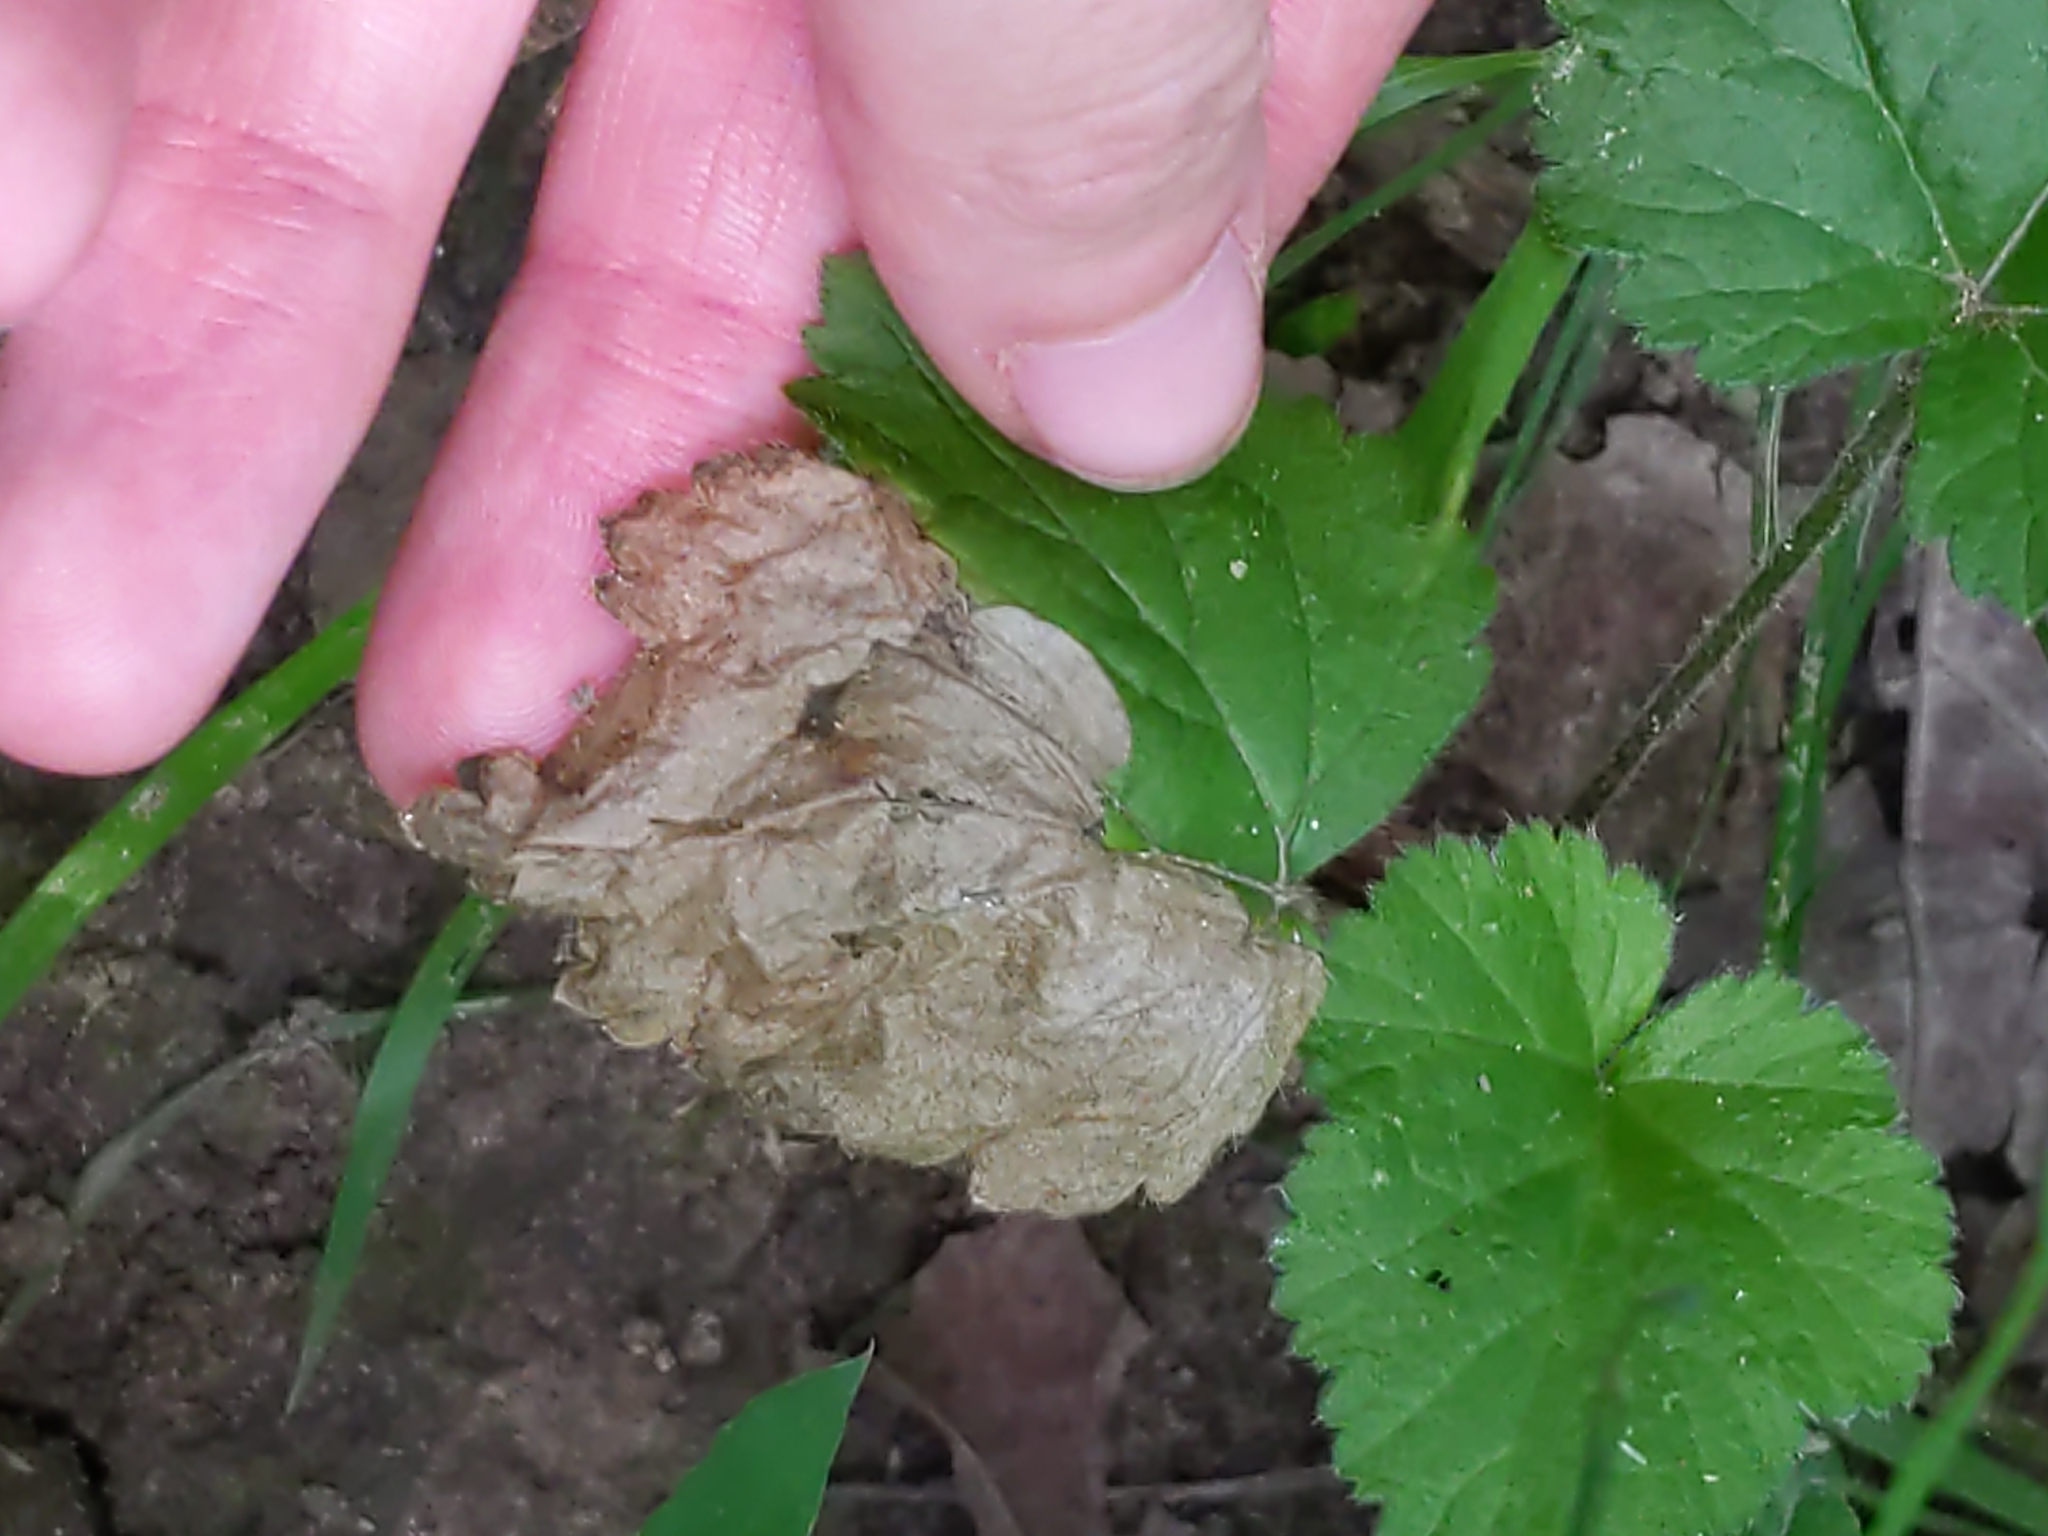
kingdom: Animalia
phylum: Arthropoda
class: Insecta
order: Hymenoptera
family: Tenthredinidae
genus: Metallus
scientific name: Metallus lanceolatus
